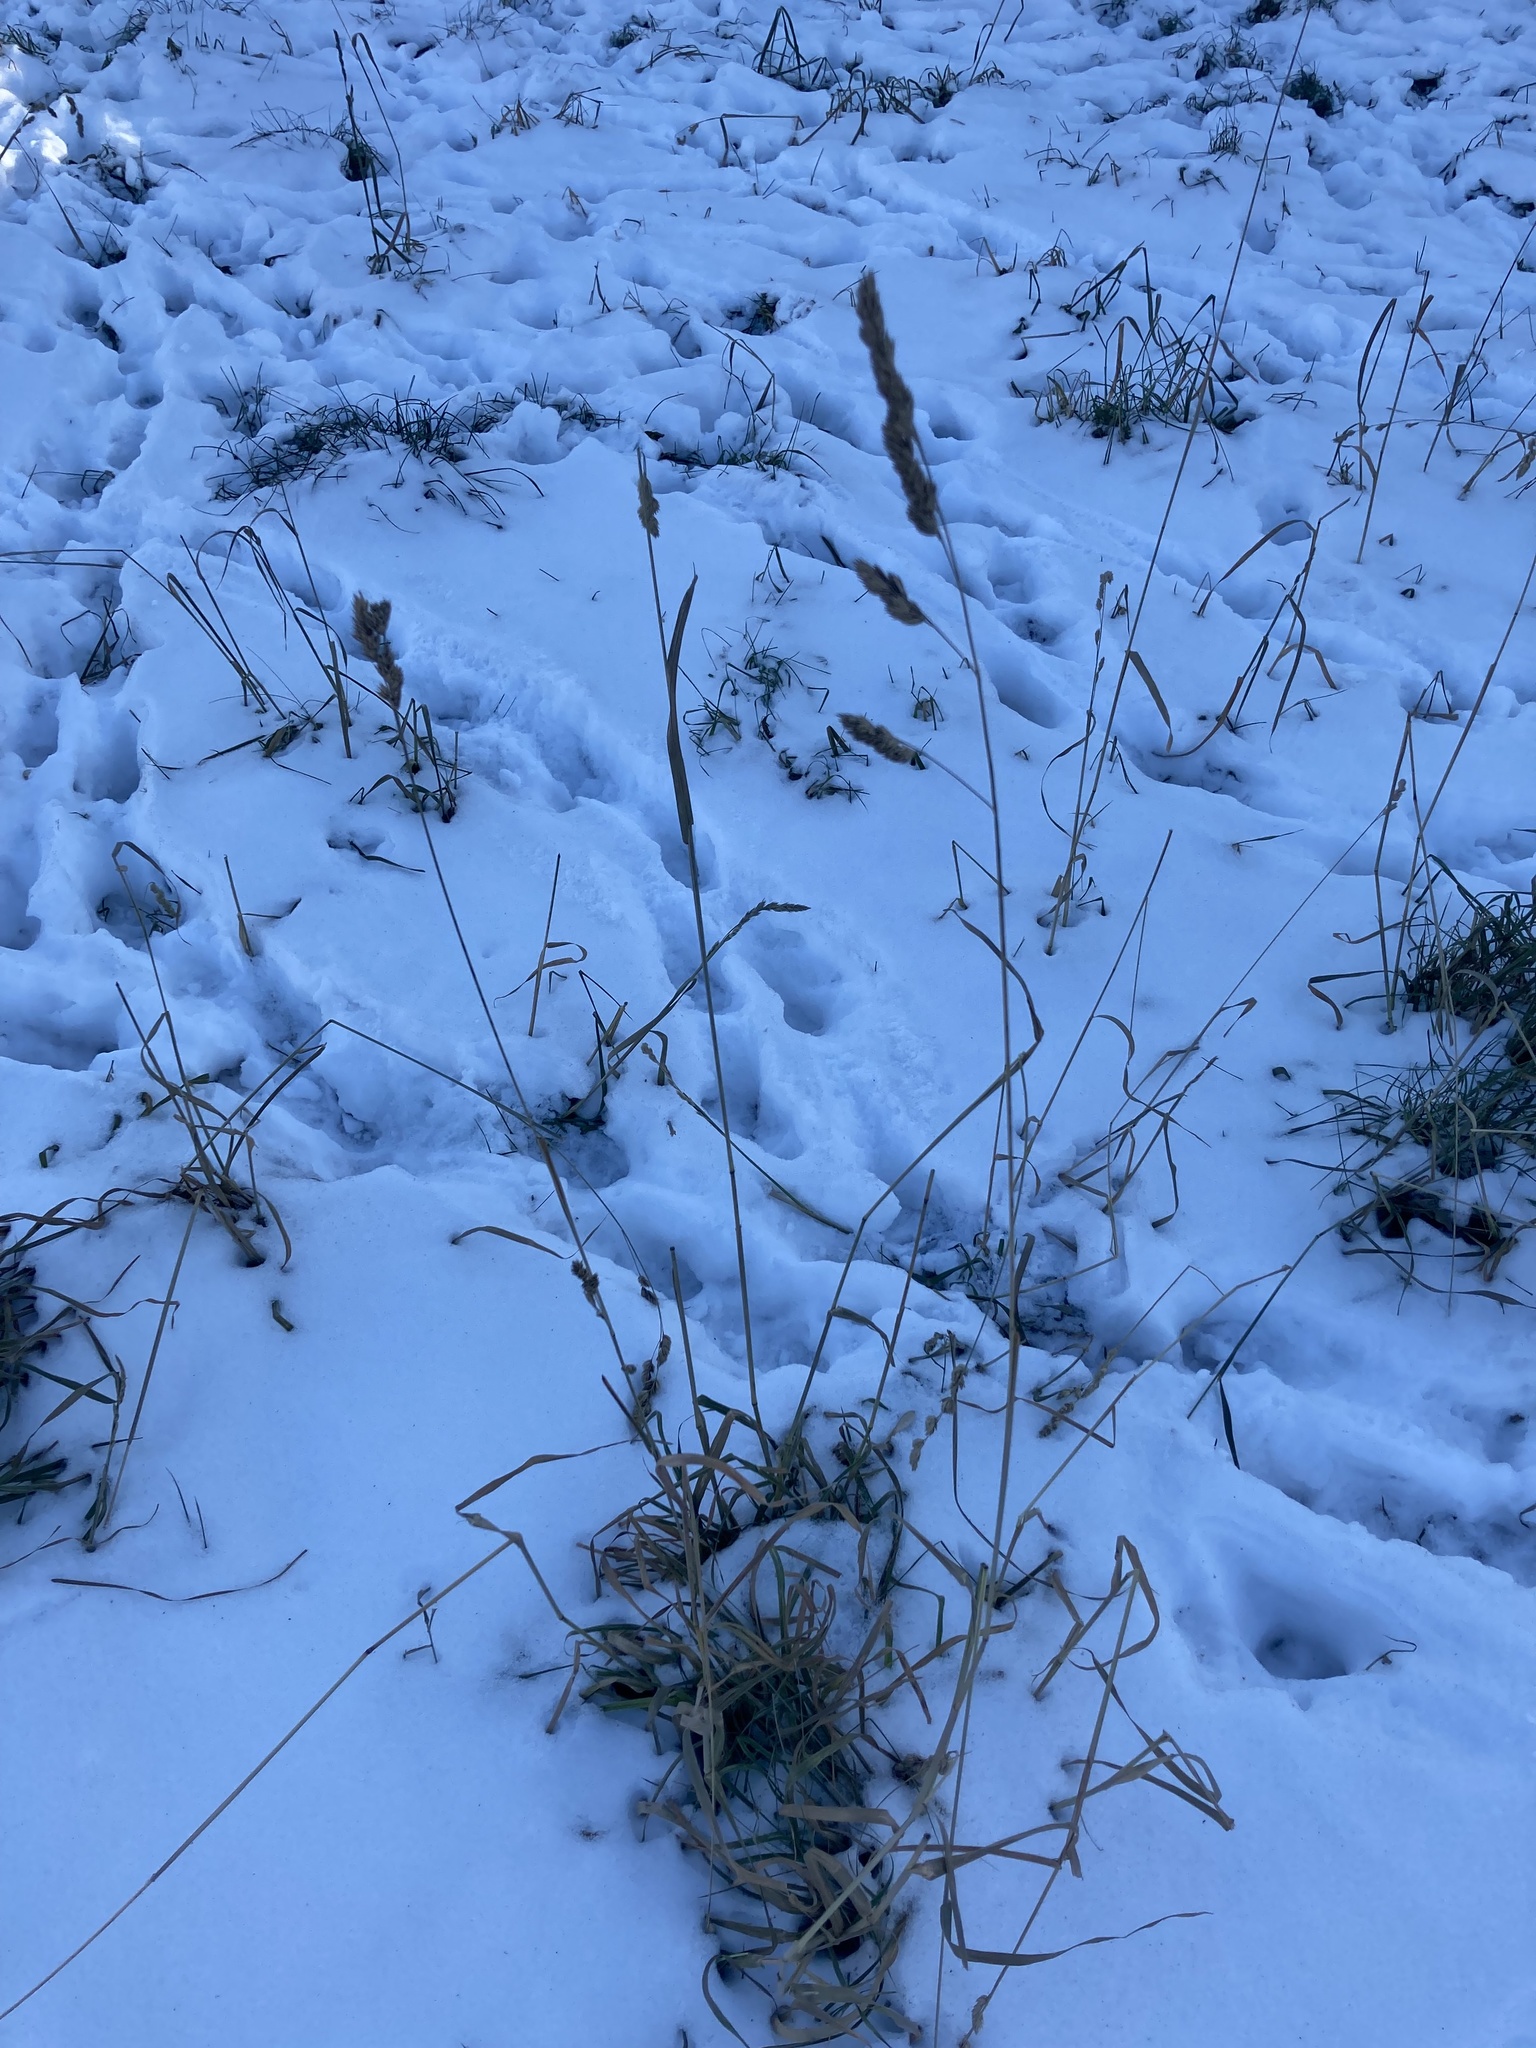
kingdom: Plantae
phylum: Tracheophyta
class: Liliopsida
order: Poales
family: Poaceae
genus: Dactylis
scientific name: Dactylis glomerata
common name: Orchardgrass
